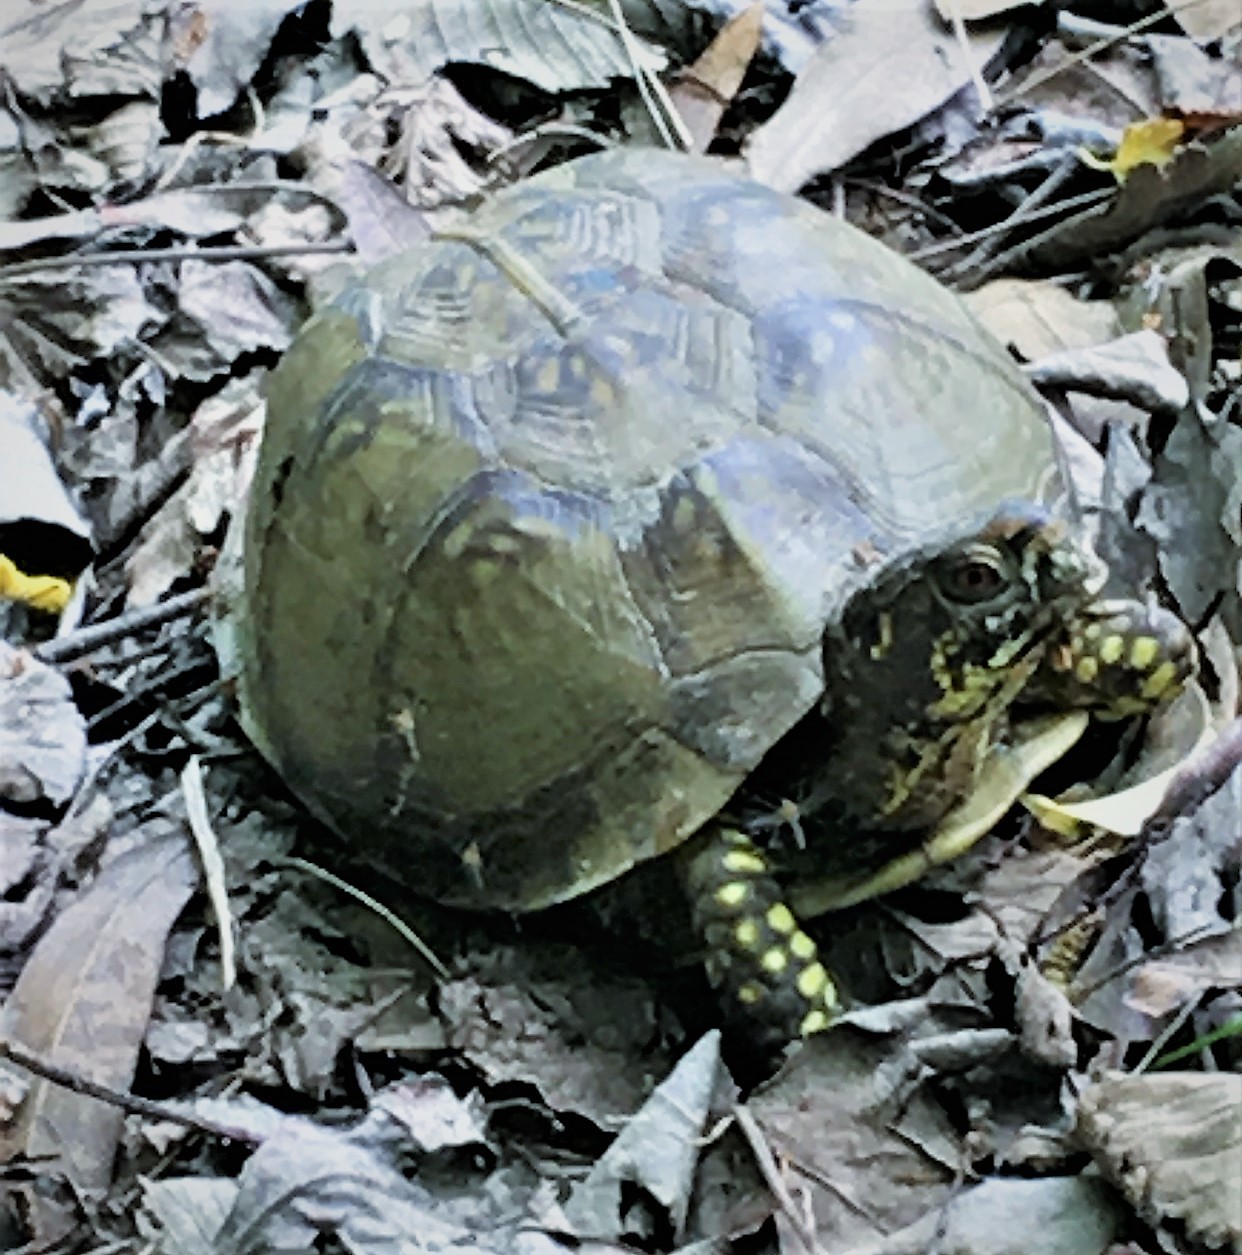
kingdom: Animalia
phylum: Chordata
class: Testudines
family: Emydidae
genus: Terrapene
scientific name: Terrapene carolina
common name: Common box turtle
